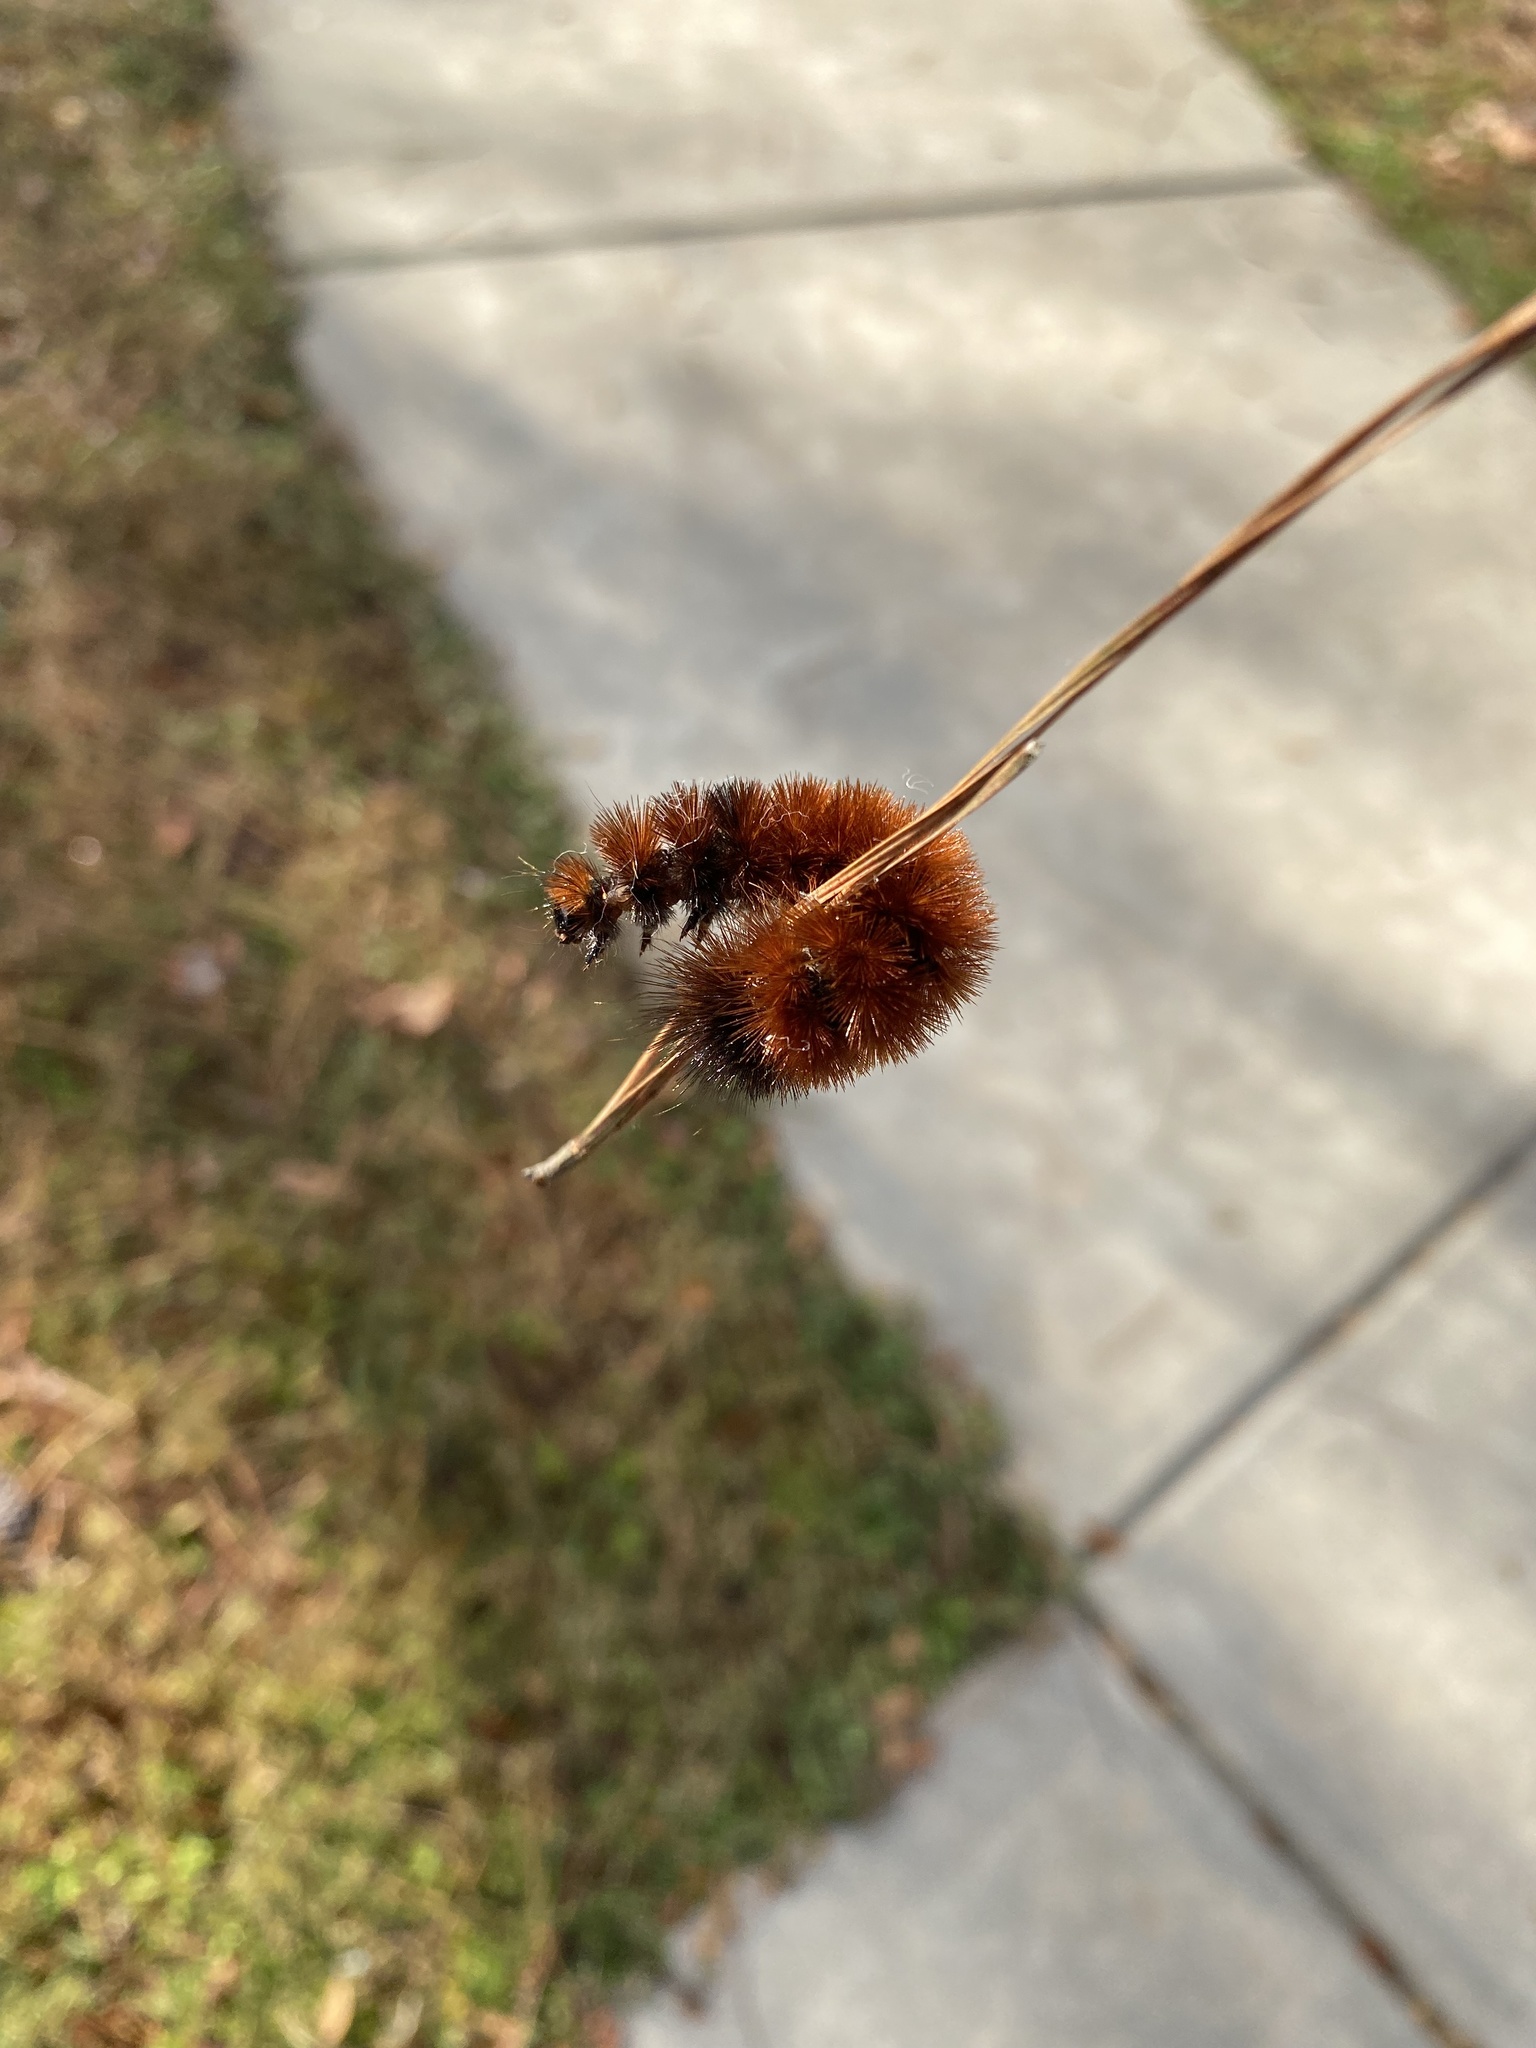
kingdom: Animalia
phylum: Arthropoda
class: Insecta
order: Lepidoptera
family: Erebidae
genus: Pyrrharctia
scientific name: Pyrrharctia isabella
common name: Isabella tiger moth
